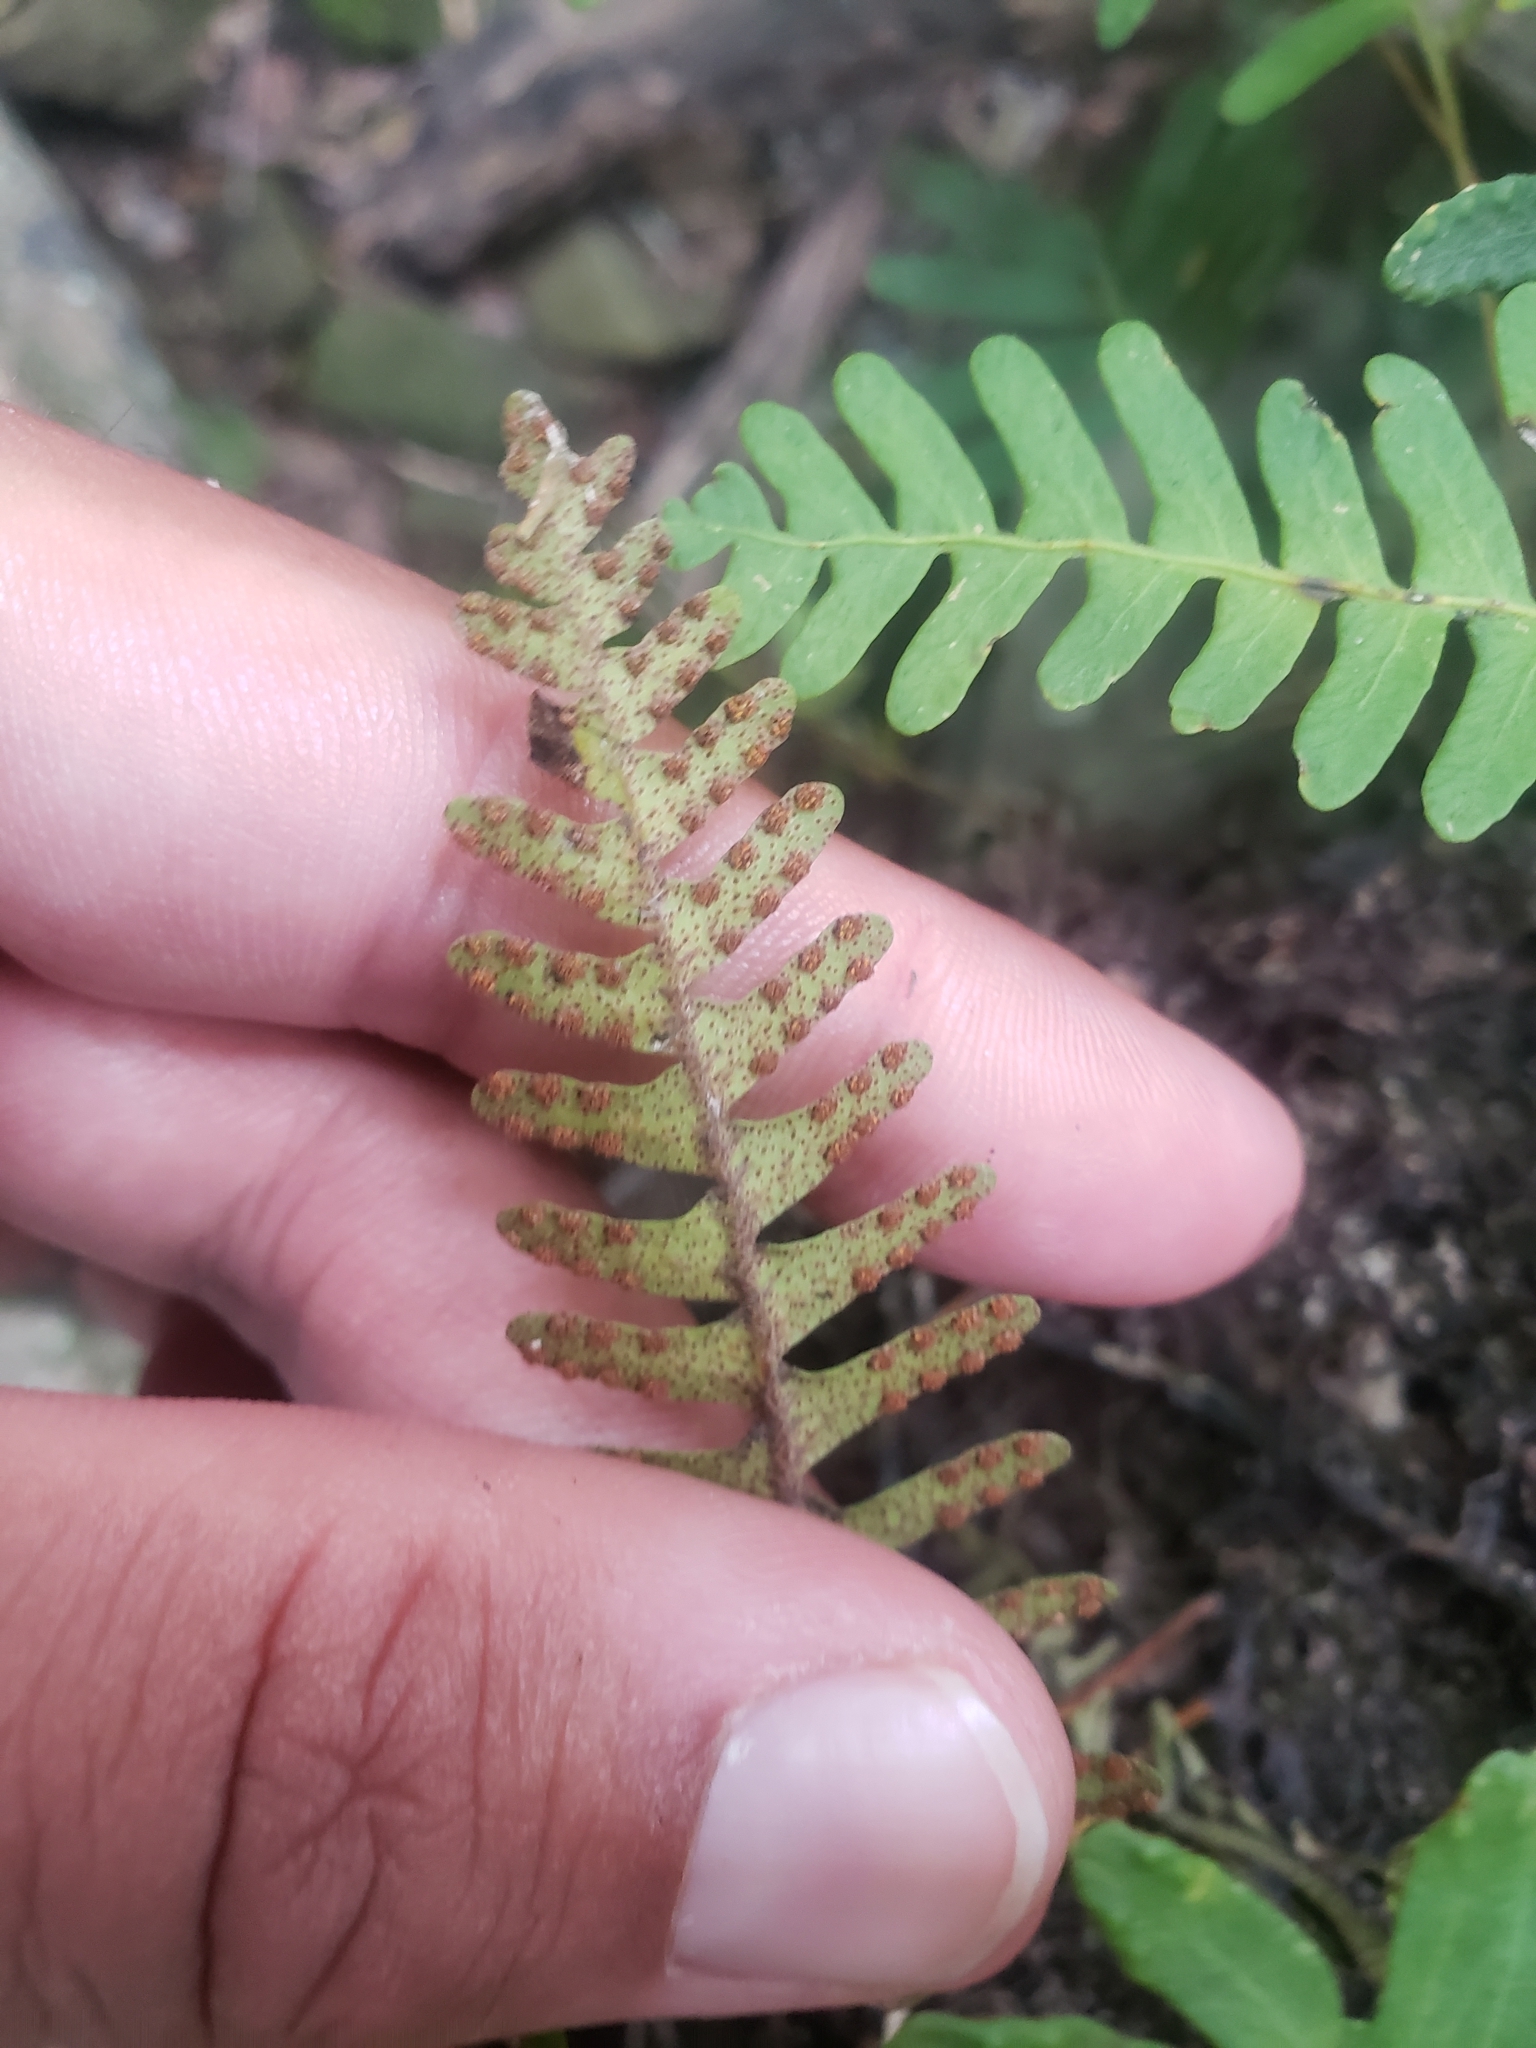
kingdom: Plantae
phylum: Tracheophyta
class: Polypodiopsida
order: Polypodiales
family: Polypodiaceae
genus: Pleopeltis
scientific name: Pleopeltis ecklonii
